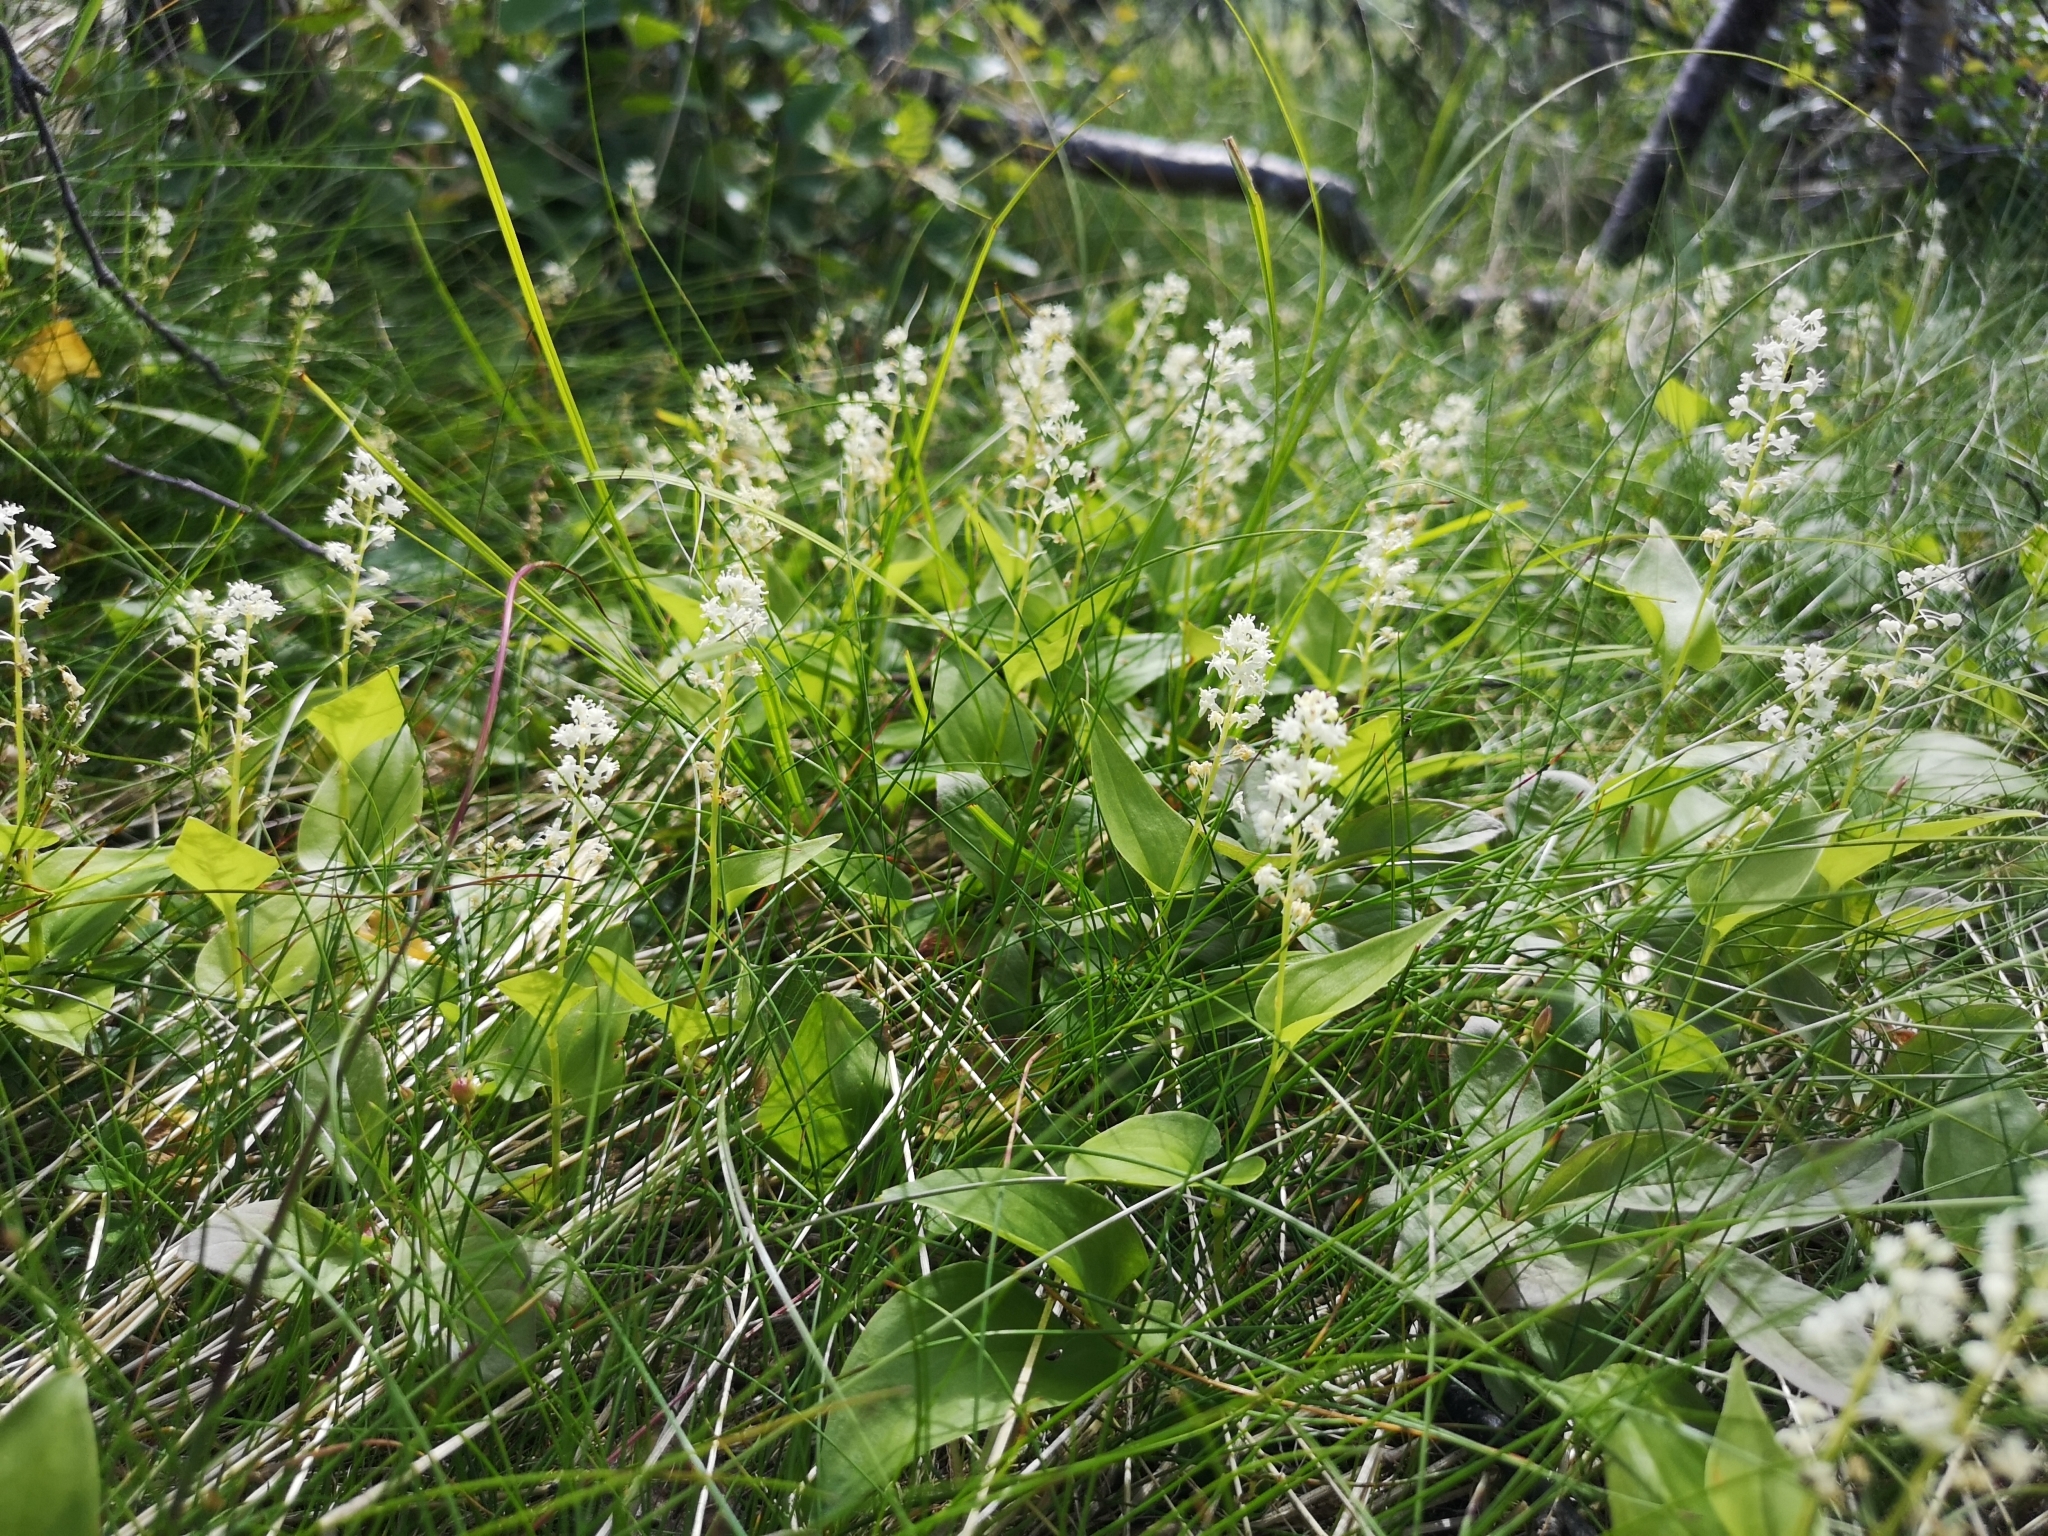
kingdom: Plantae
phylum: Tracheophyta
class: Liliopsida
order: Asparagales
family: Asparagaceae
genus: Maianthemum
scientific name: Maianthemum bifolium
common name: May lily
